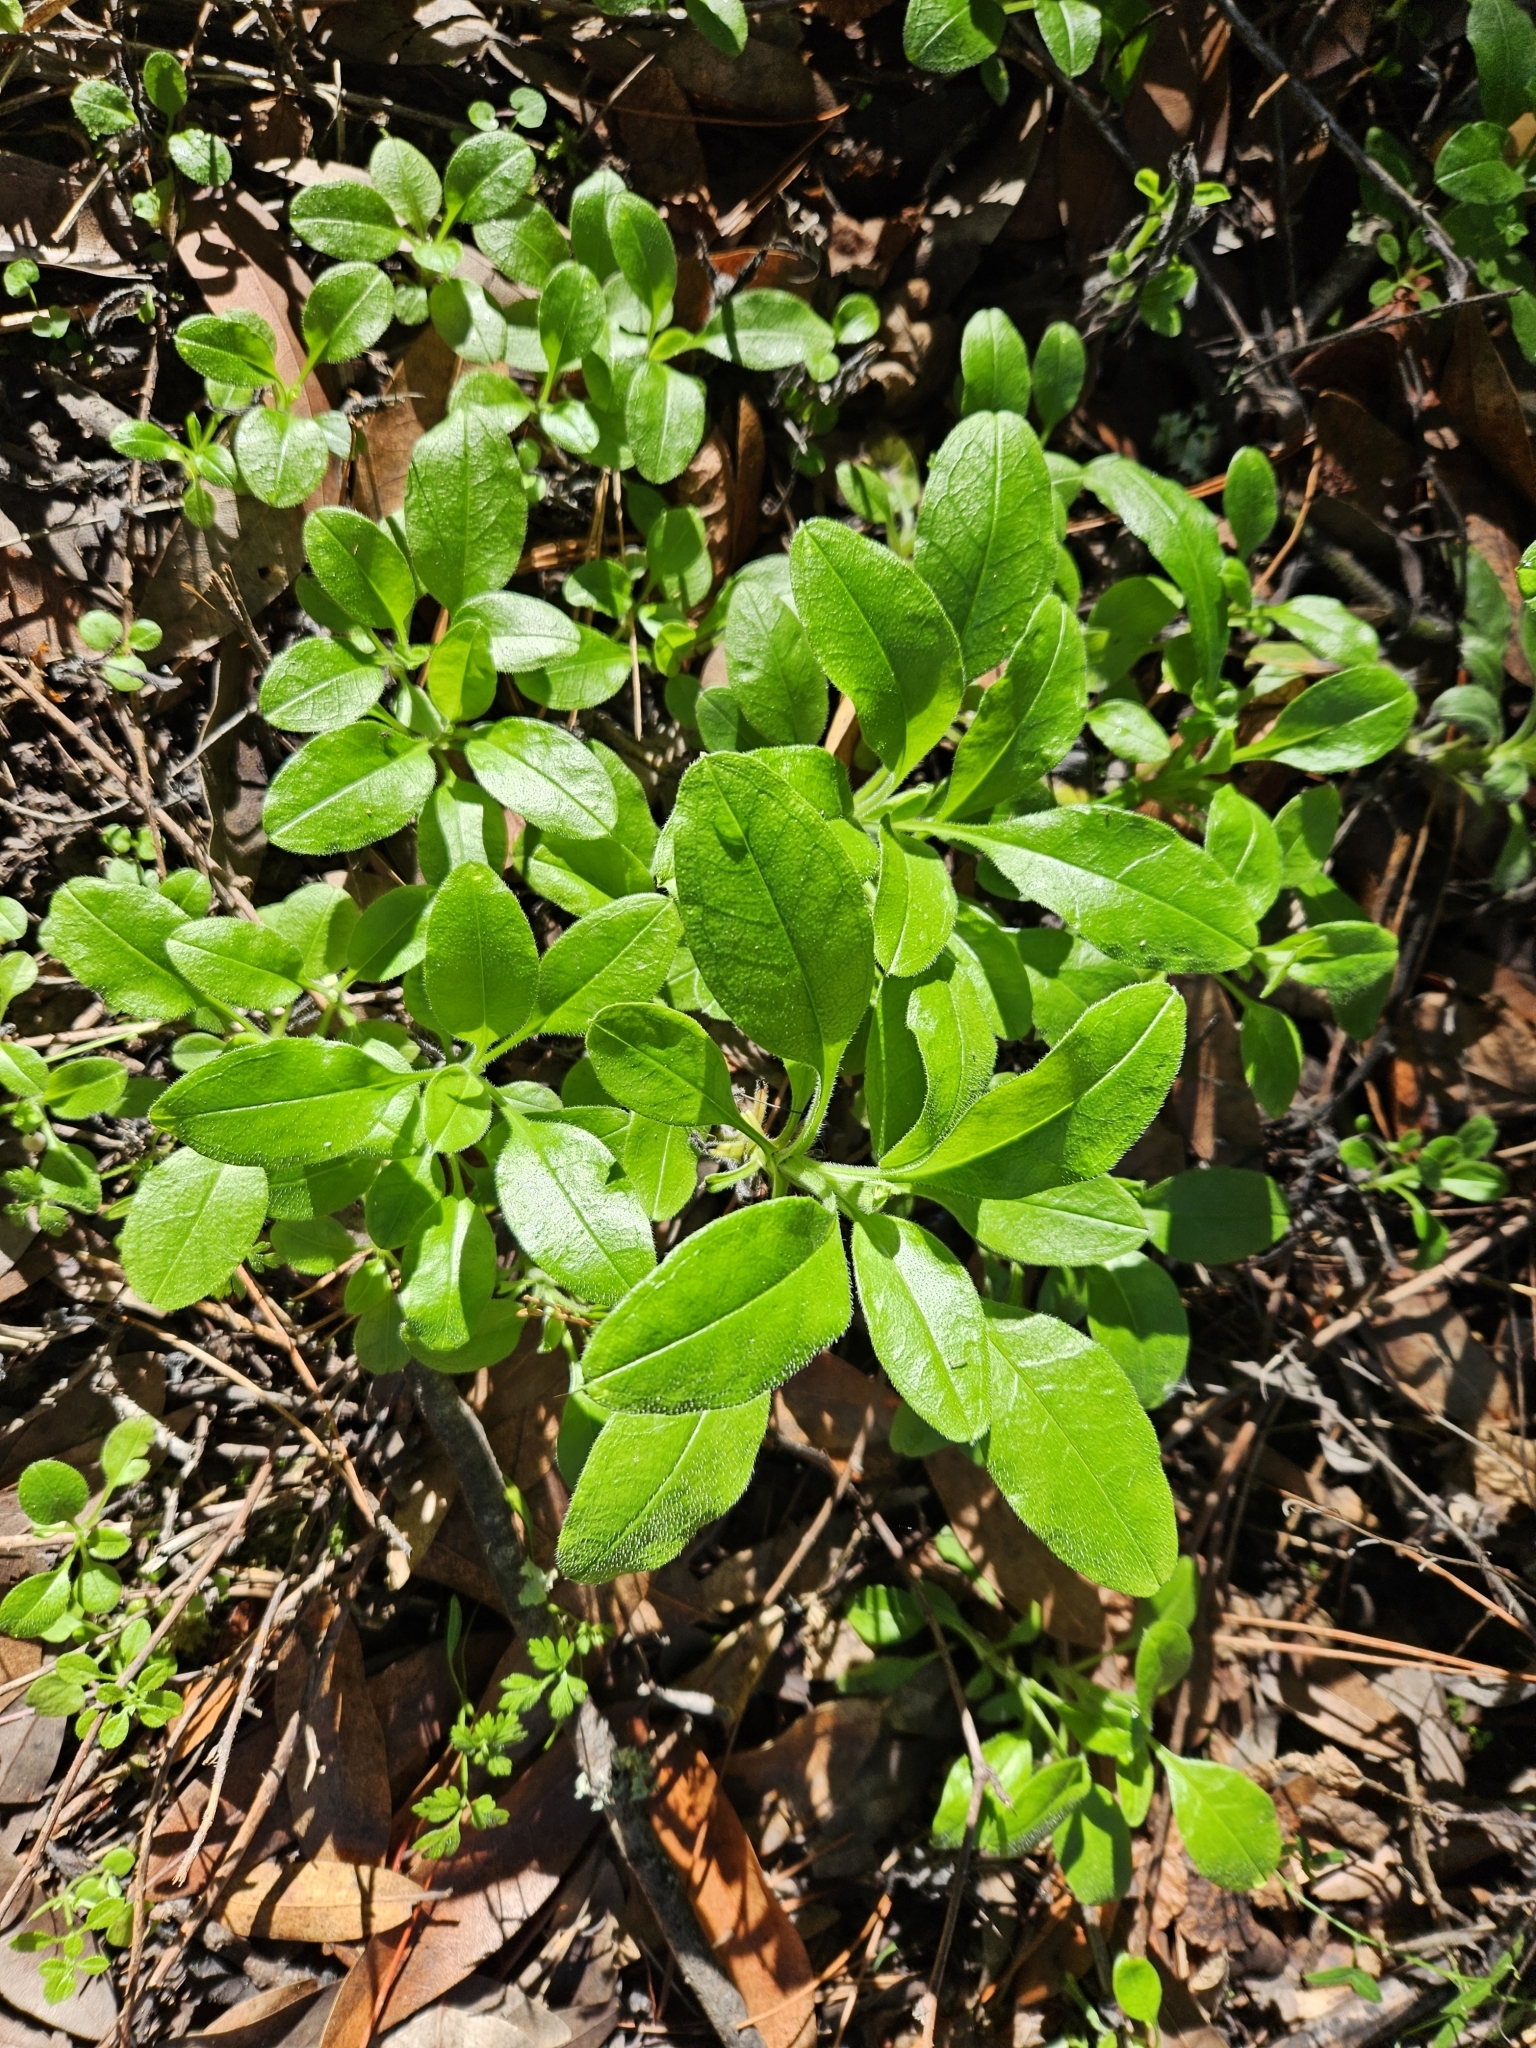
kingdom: Plantae
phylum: Tracheophyta
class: Magnoliopsida
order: Boraginales
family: Boraginaceae
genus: Myosotis
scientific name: Myosotis latifolia
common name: Broadleaf forget-me-not
